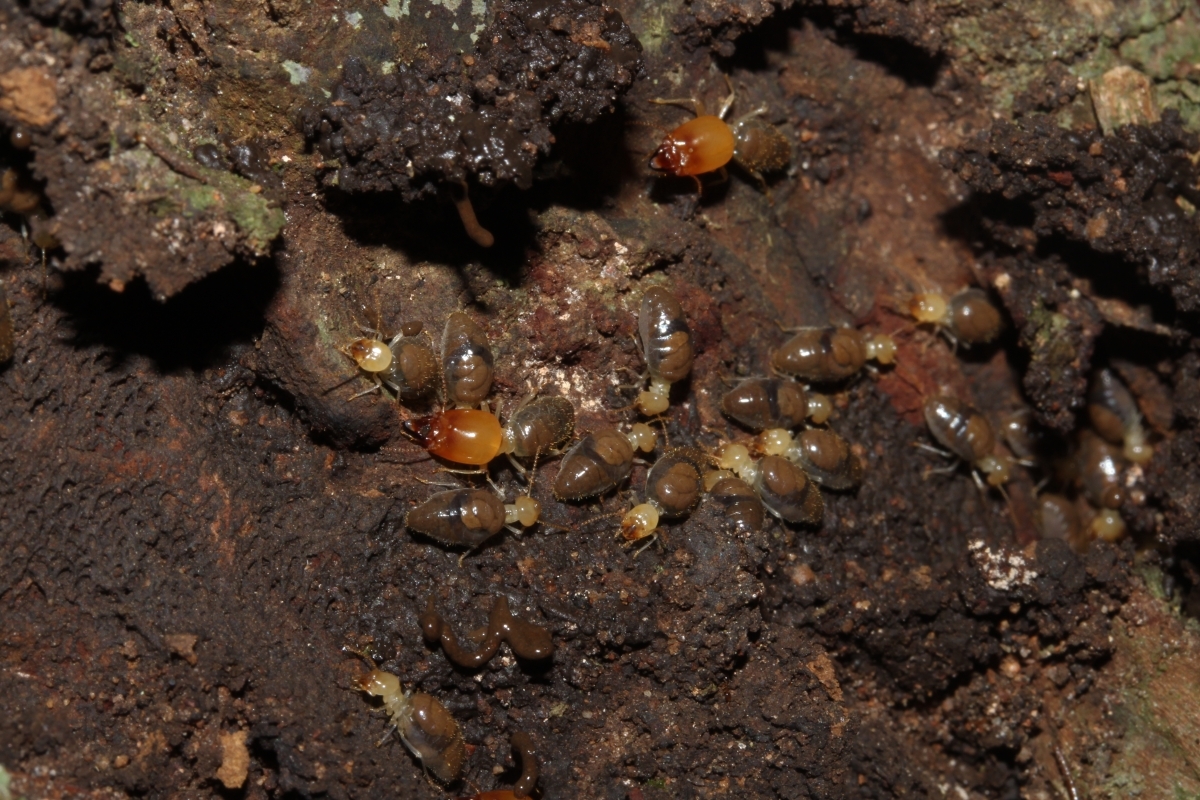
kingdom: Animalia
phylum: Arthropoda
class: Insecta
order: Blattodea
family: Termitidae
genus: Labiotermes
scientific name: Labiotermes labralis
